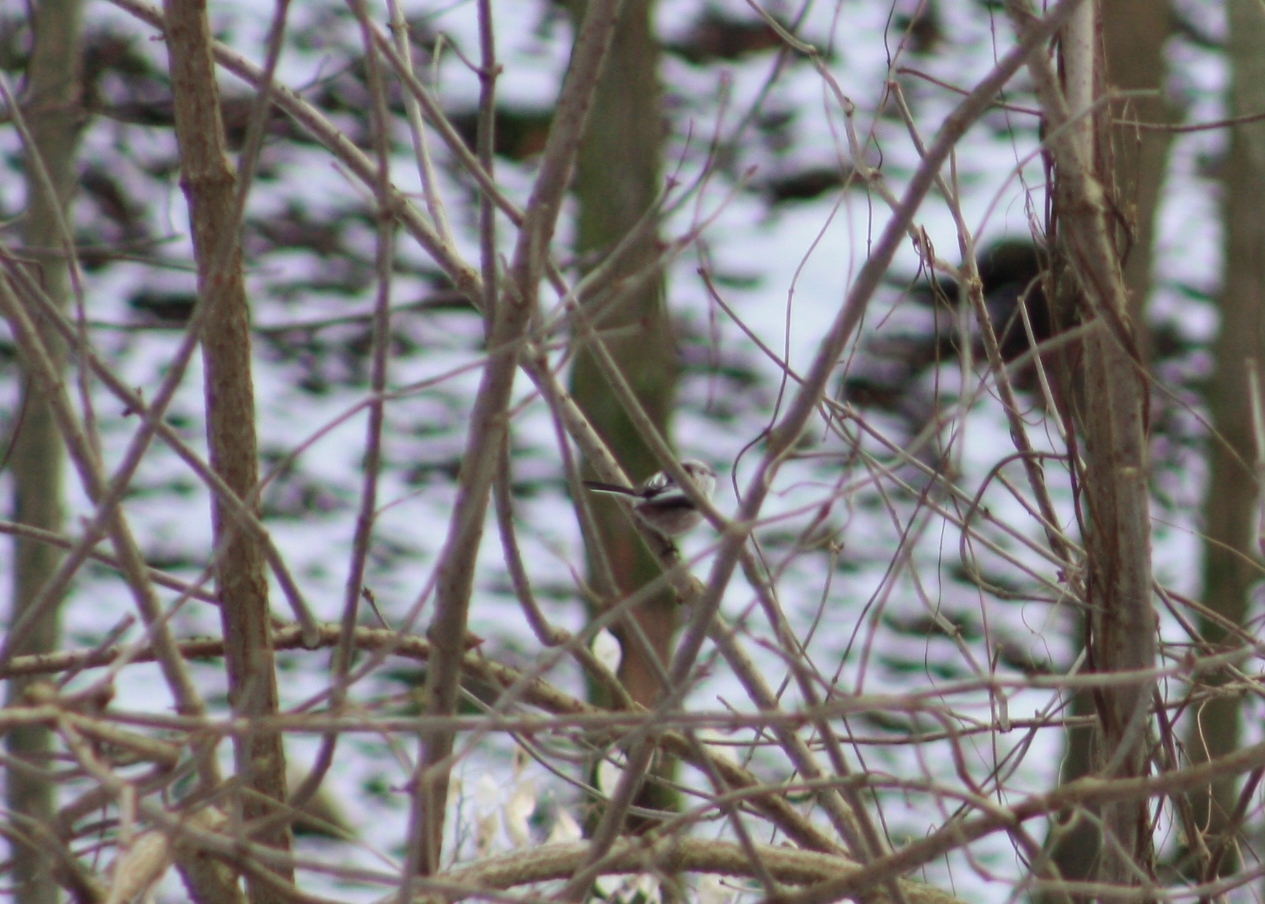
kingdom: Animalia
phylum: Chordata
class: Aves
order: Passeriformes
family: Aegithalidae
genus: Aegithalos
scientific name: Aegithalos caudatus
